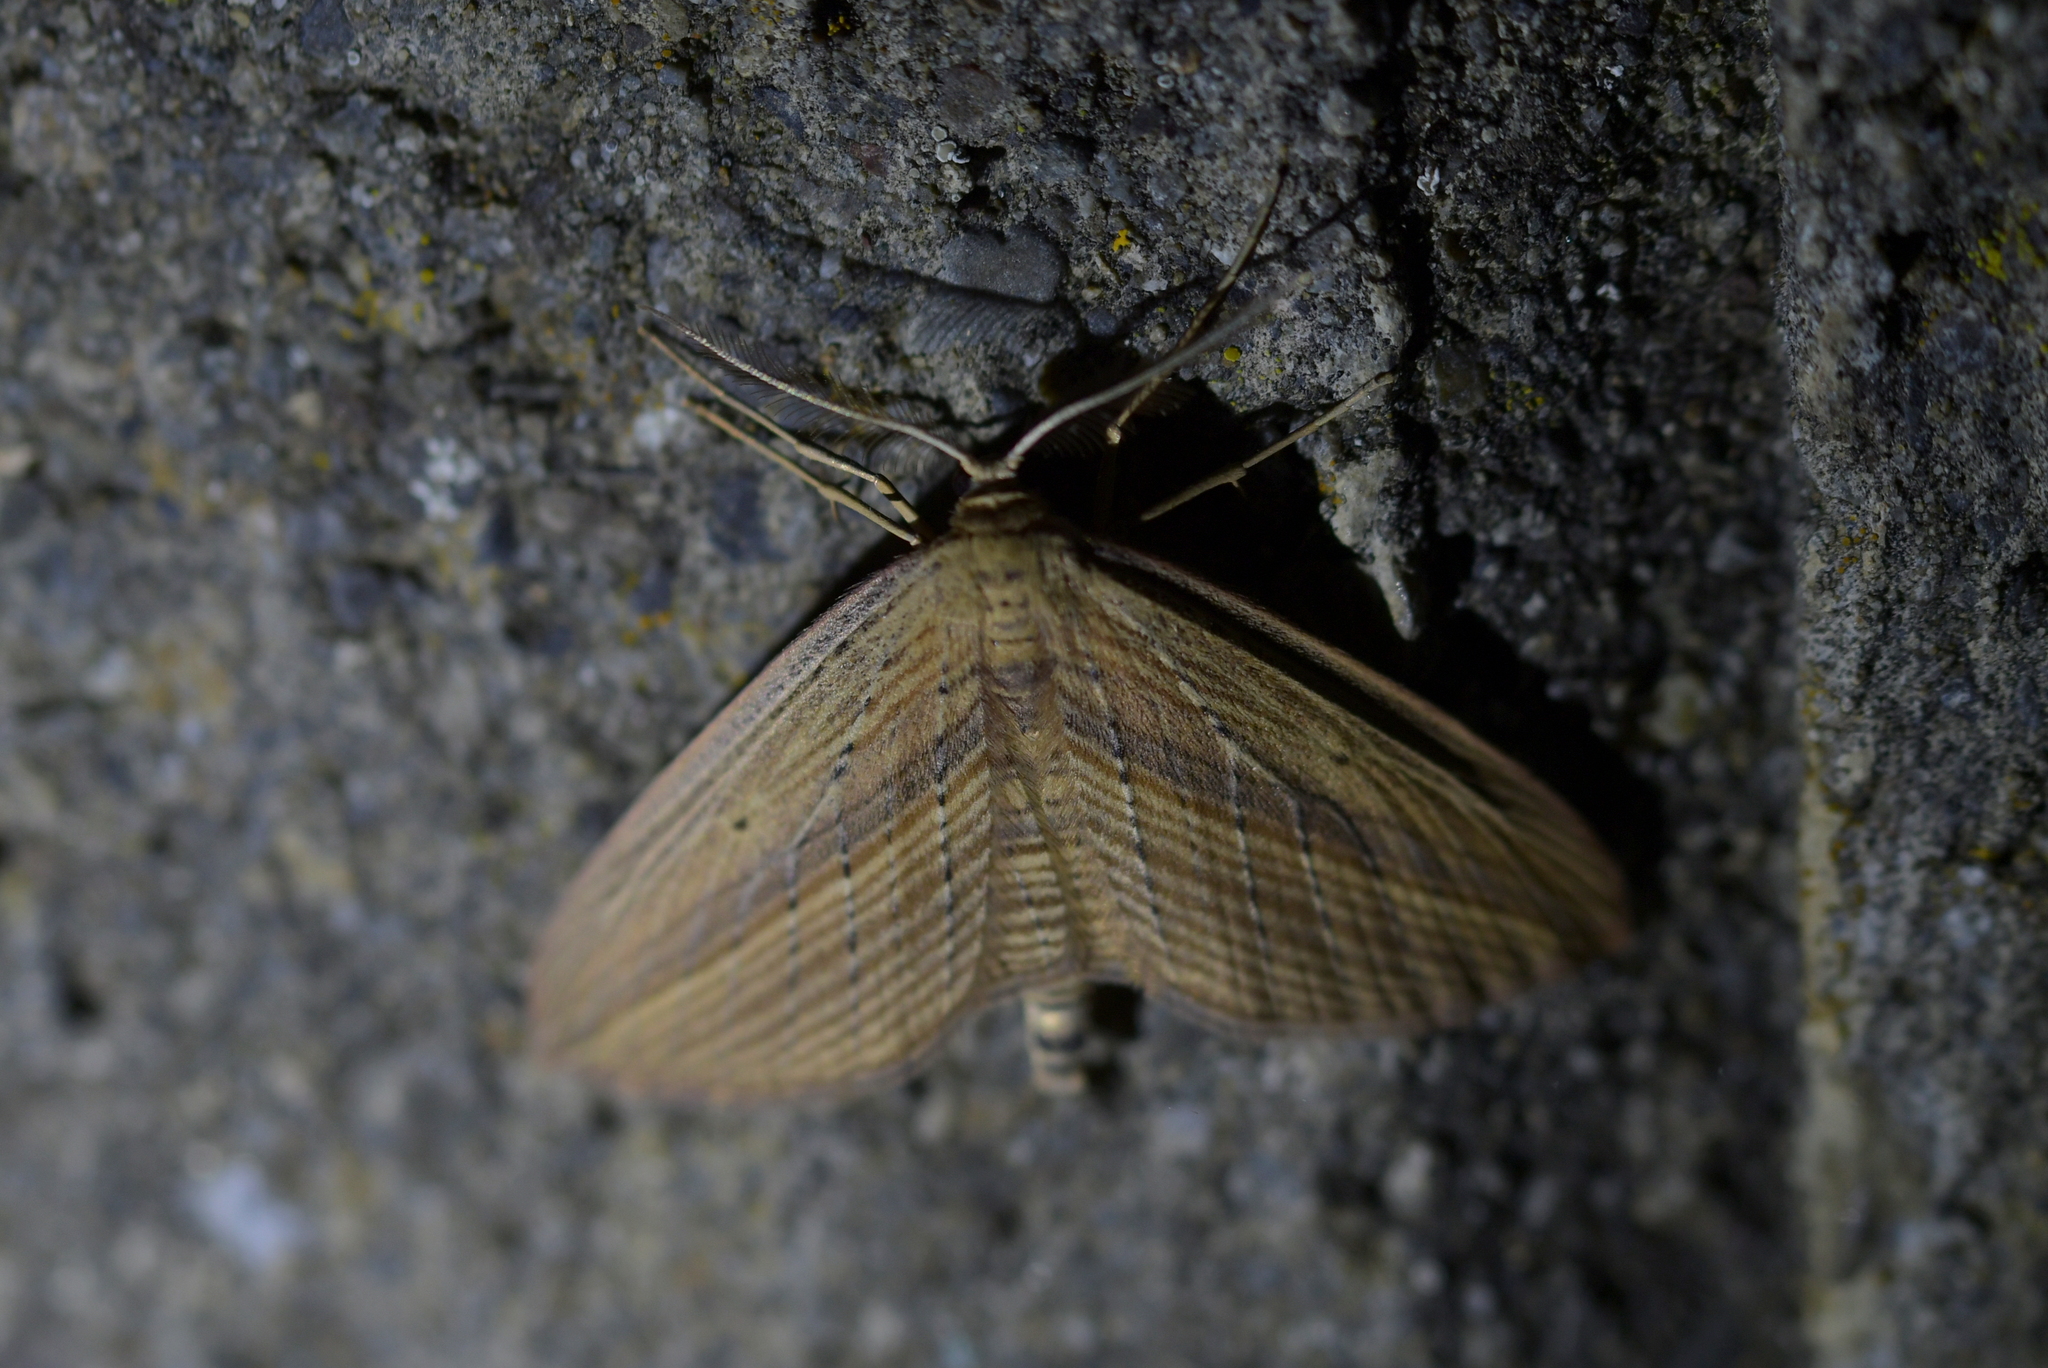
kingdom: Animalia
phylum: Arthropoda
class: Insecta
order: Lepidoptera
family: Geometridae
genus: Epiphryne
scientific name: Epiphryne verriculata
